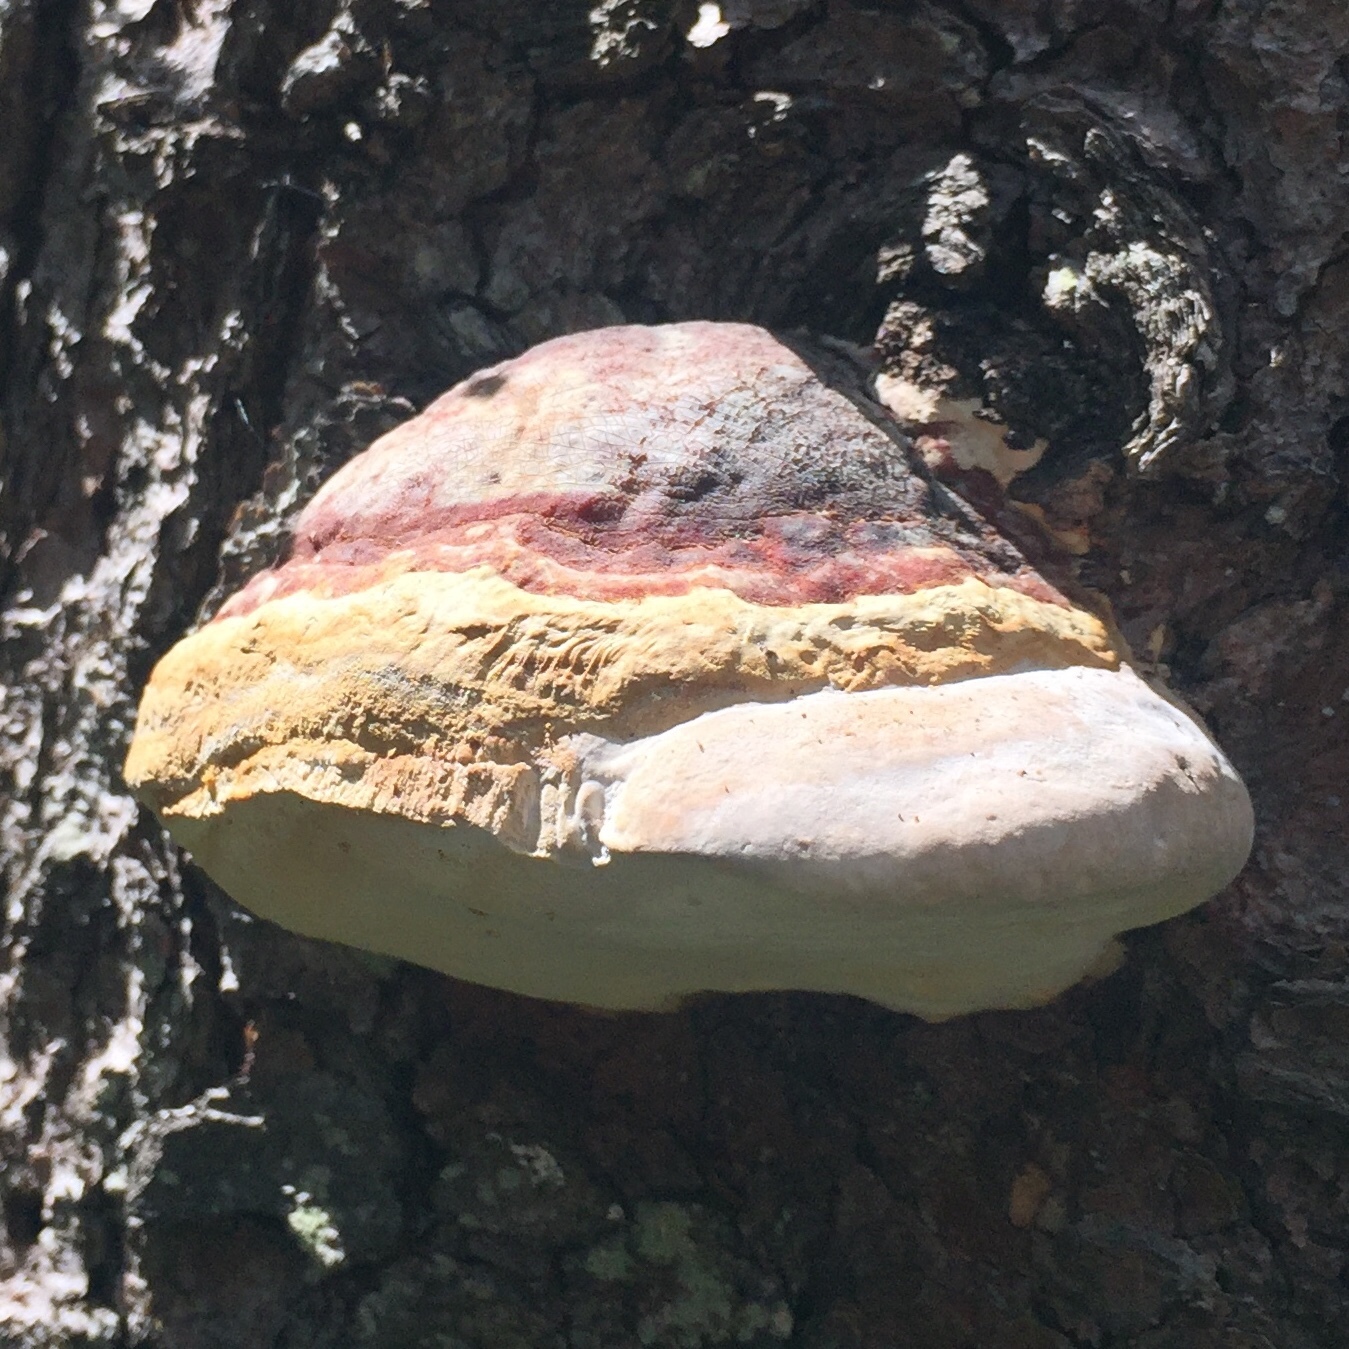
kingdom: Fungi
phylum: Basidiomycota
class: Agaricomycetes
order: Polyporales
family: Polyporaceae
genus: Fomes
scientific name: Fomes fomentarius
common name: Hoof fungus
